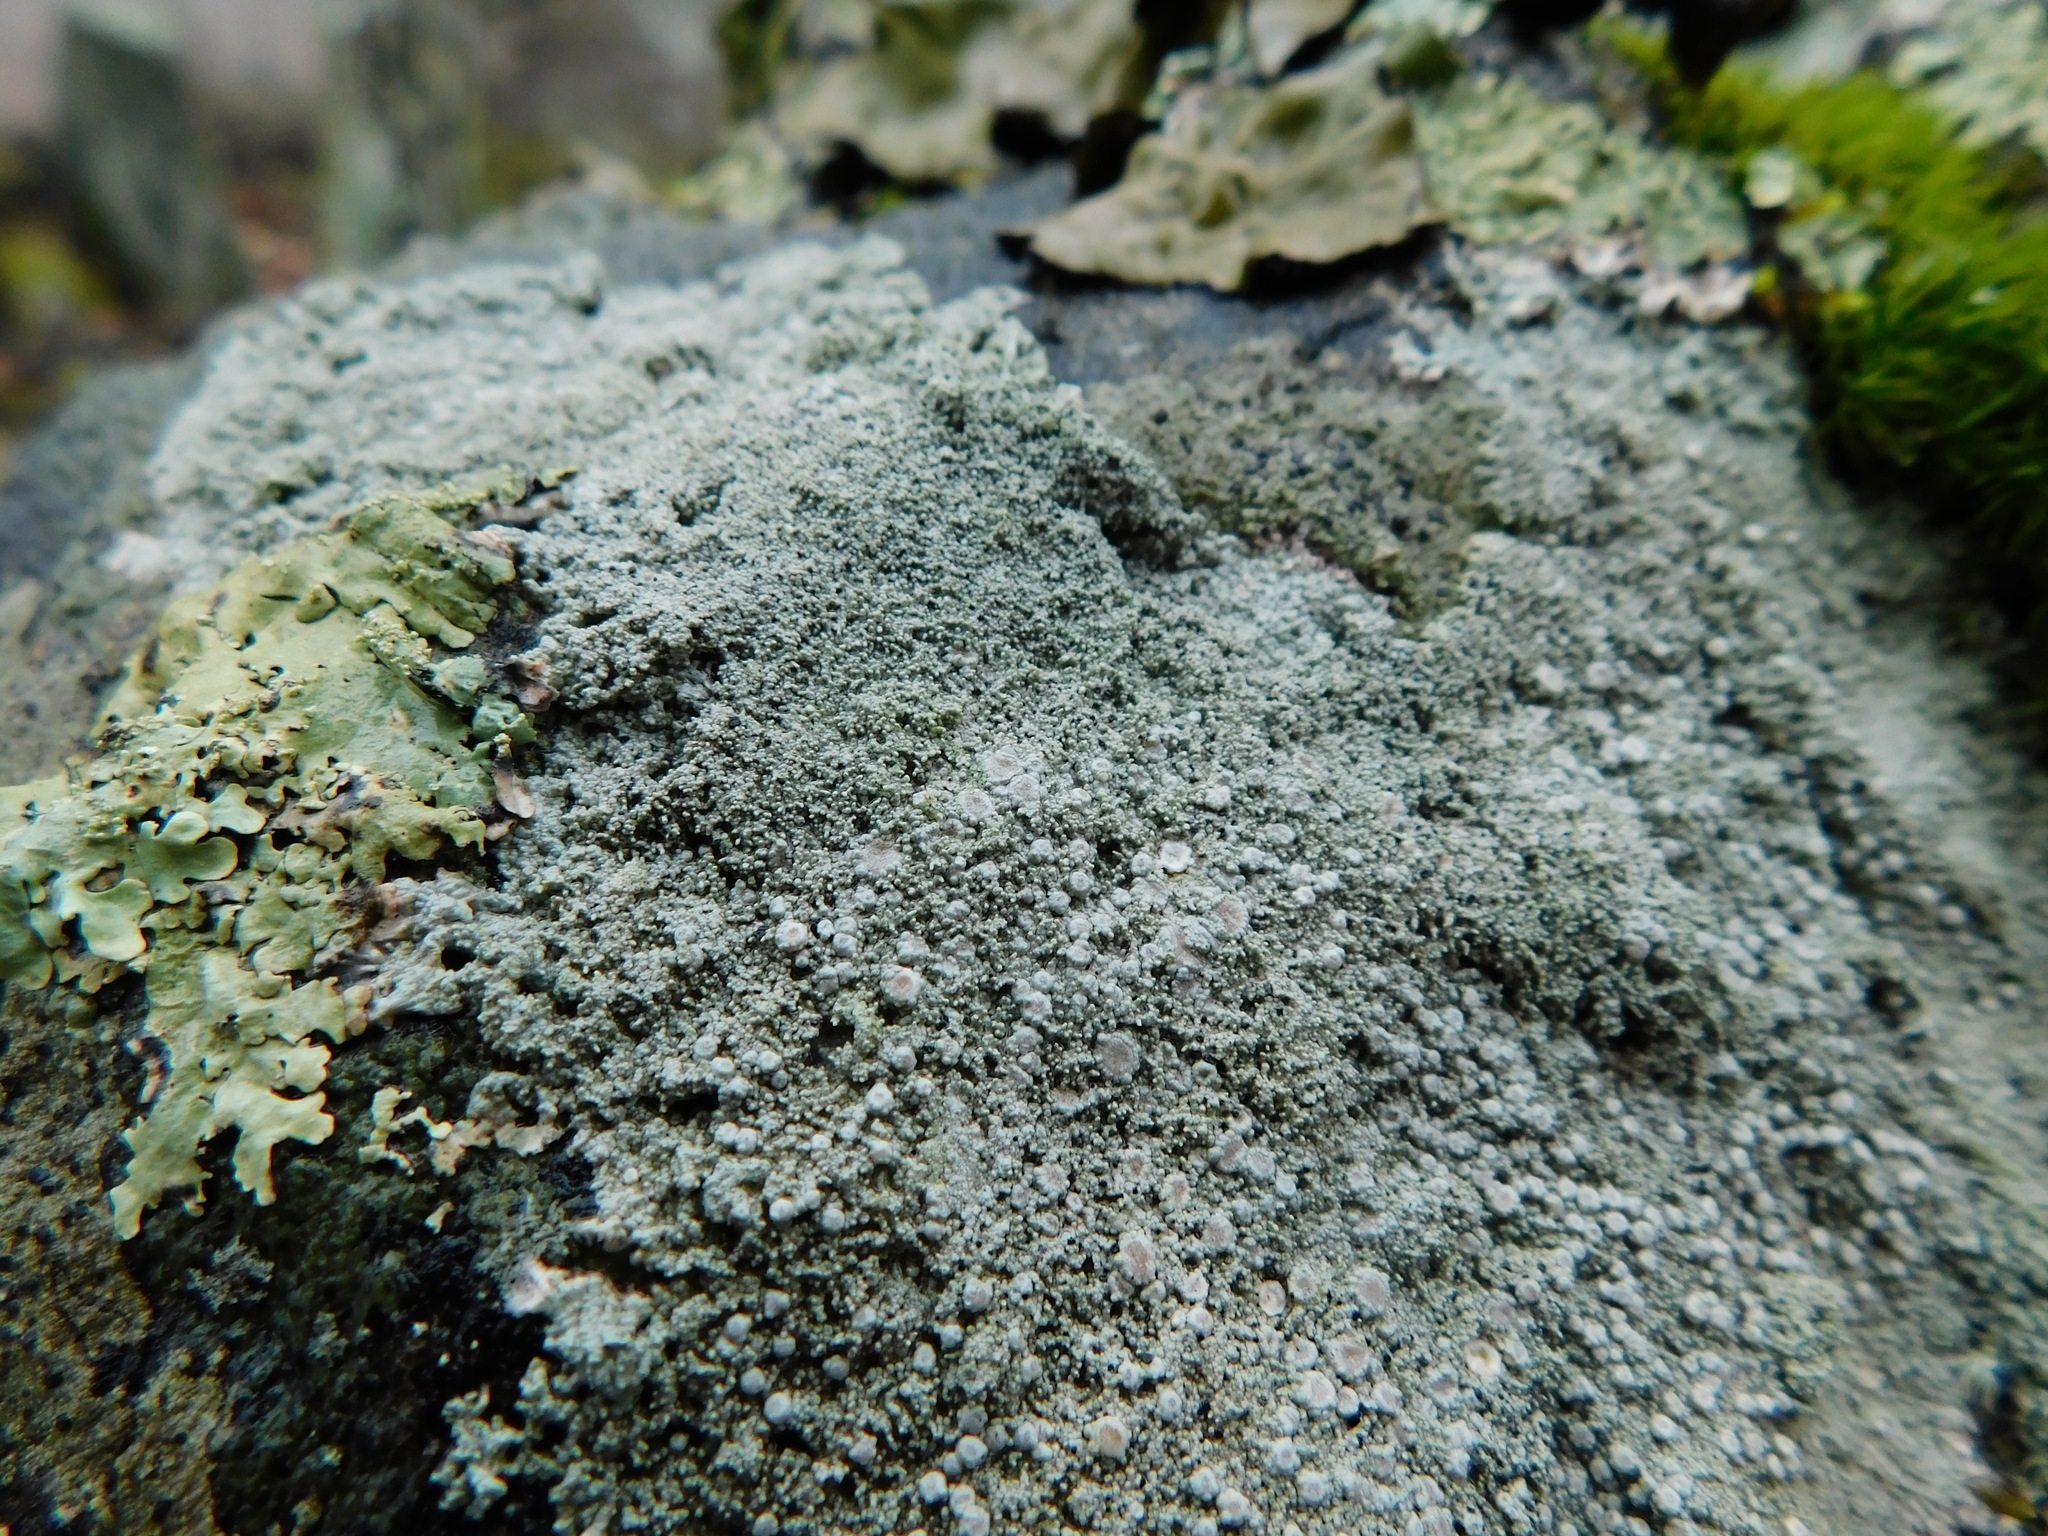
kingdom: Fungi
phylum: Ascomycota
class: Lecanoromycetes
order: Pertusariales
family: Ochrolechiaceae
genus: Ochrolechia
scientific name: Ochrolechia trochophora
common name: Rosy saucer lichen
